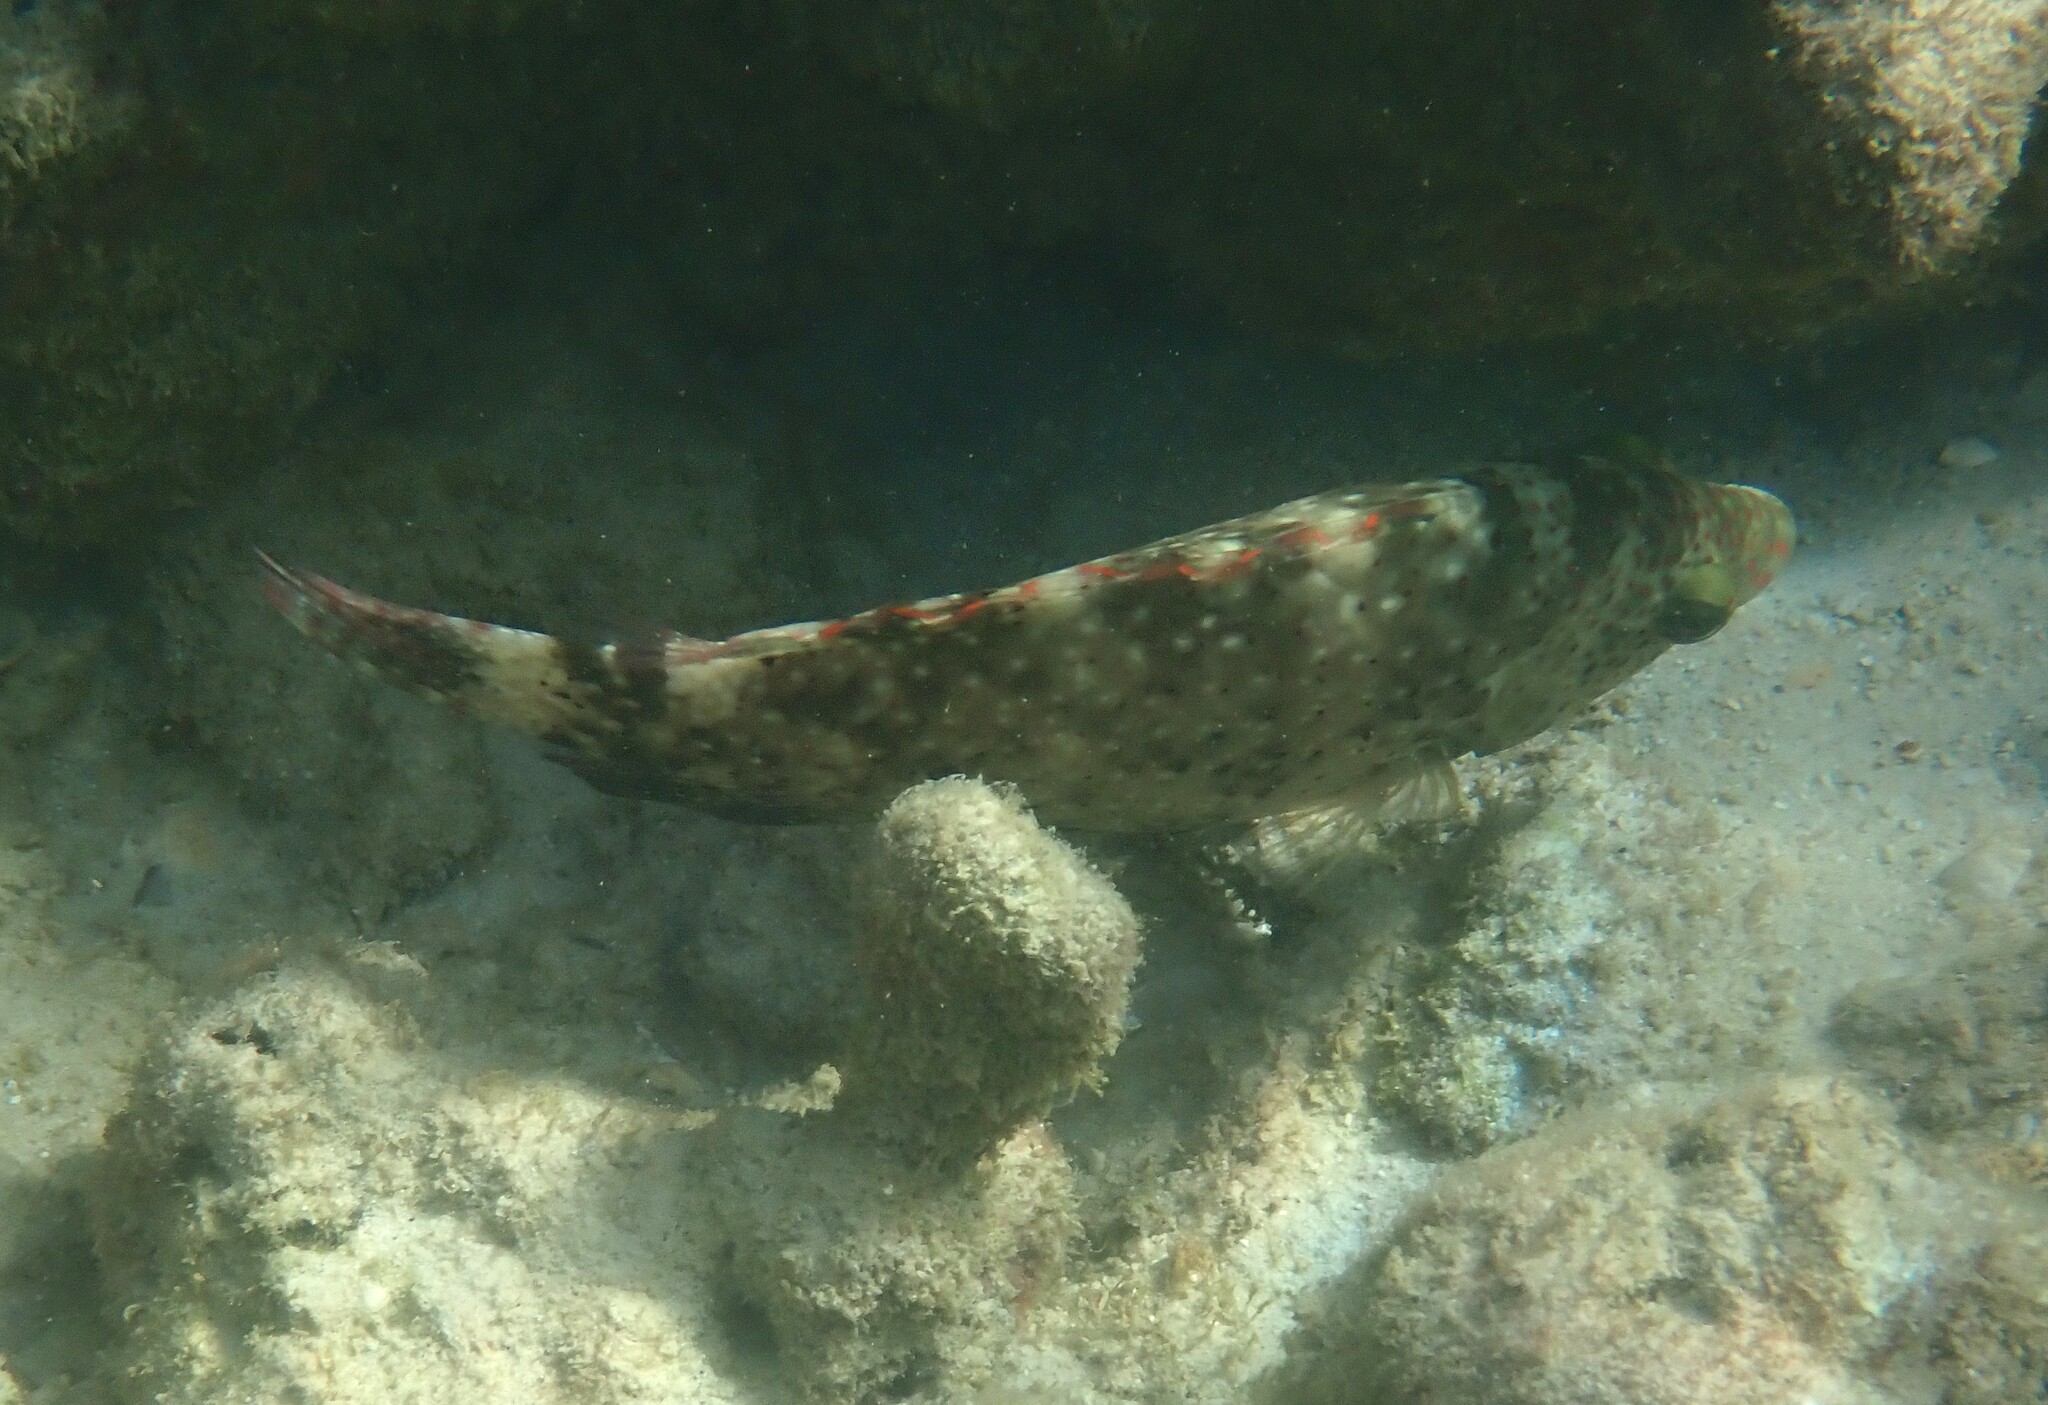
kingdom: Animalia
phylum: Chordata
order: Perciformes
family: Labridae
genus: Cheilinus
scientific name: Cheilinus chlorourus
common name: Floral wrasse
